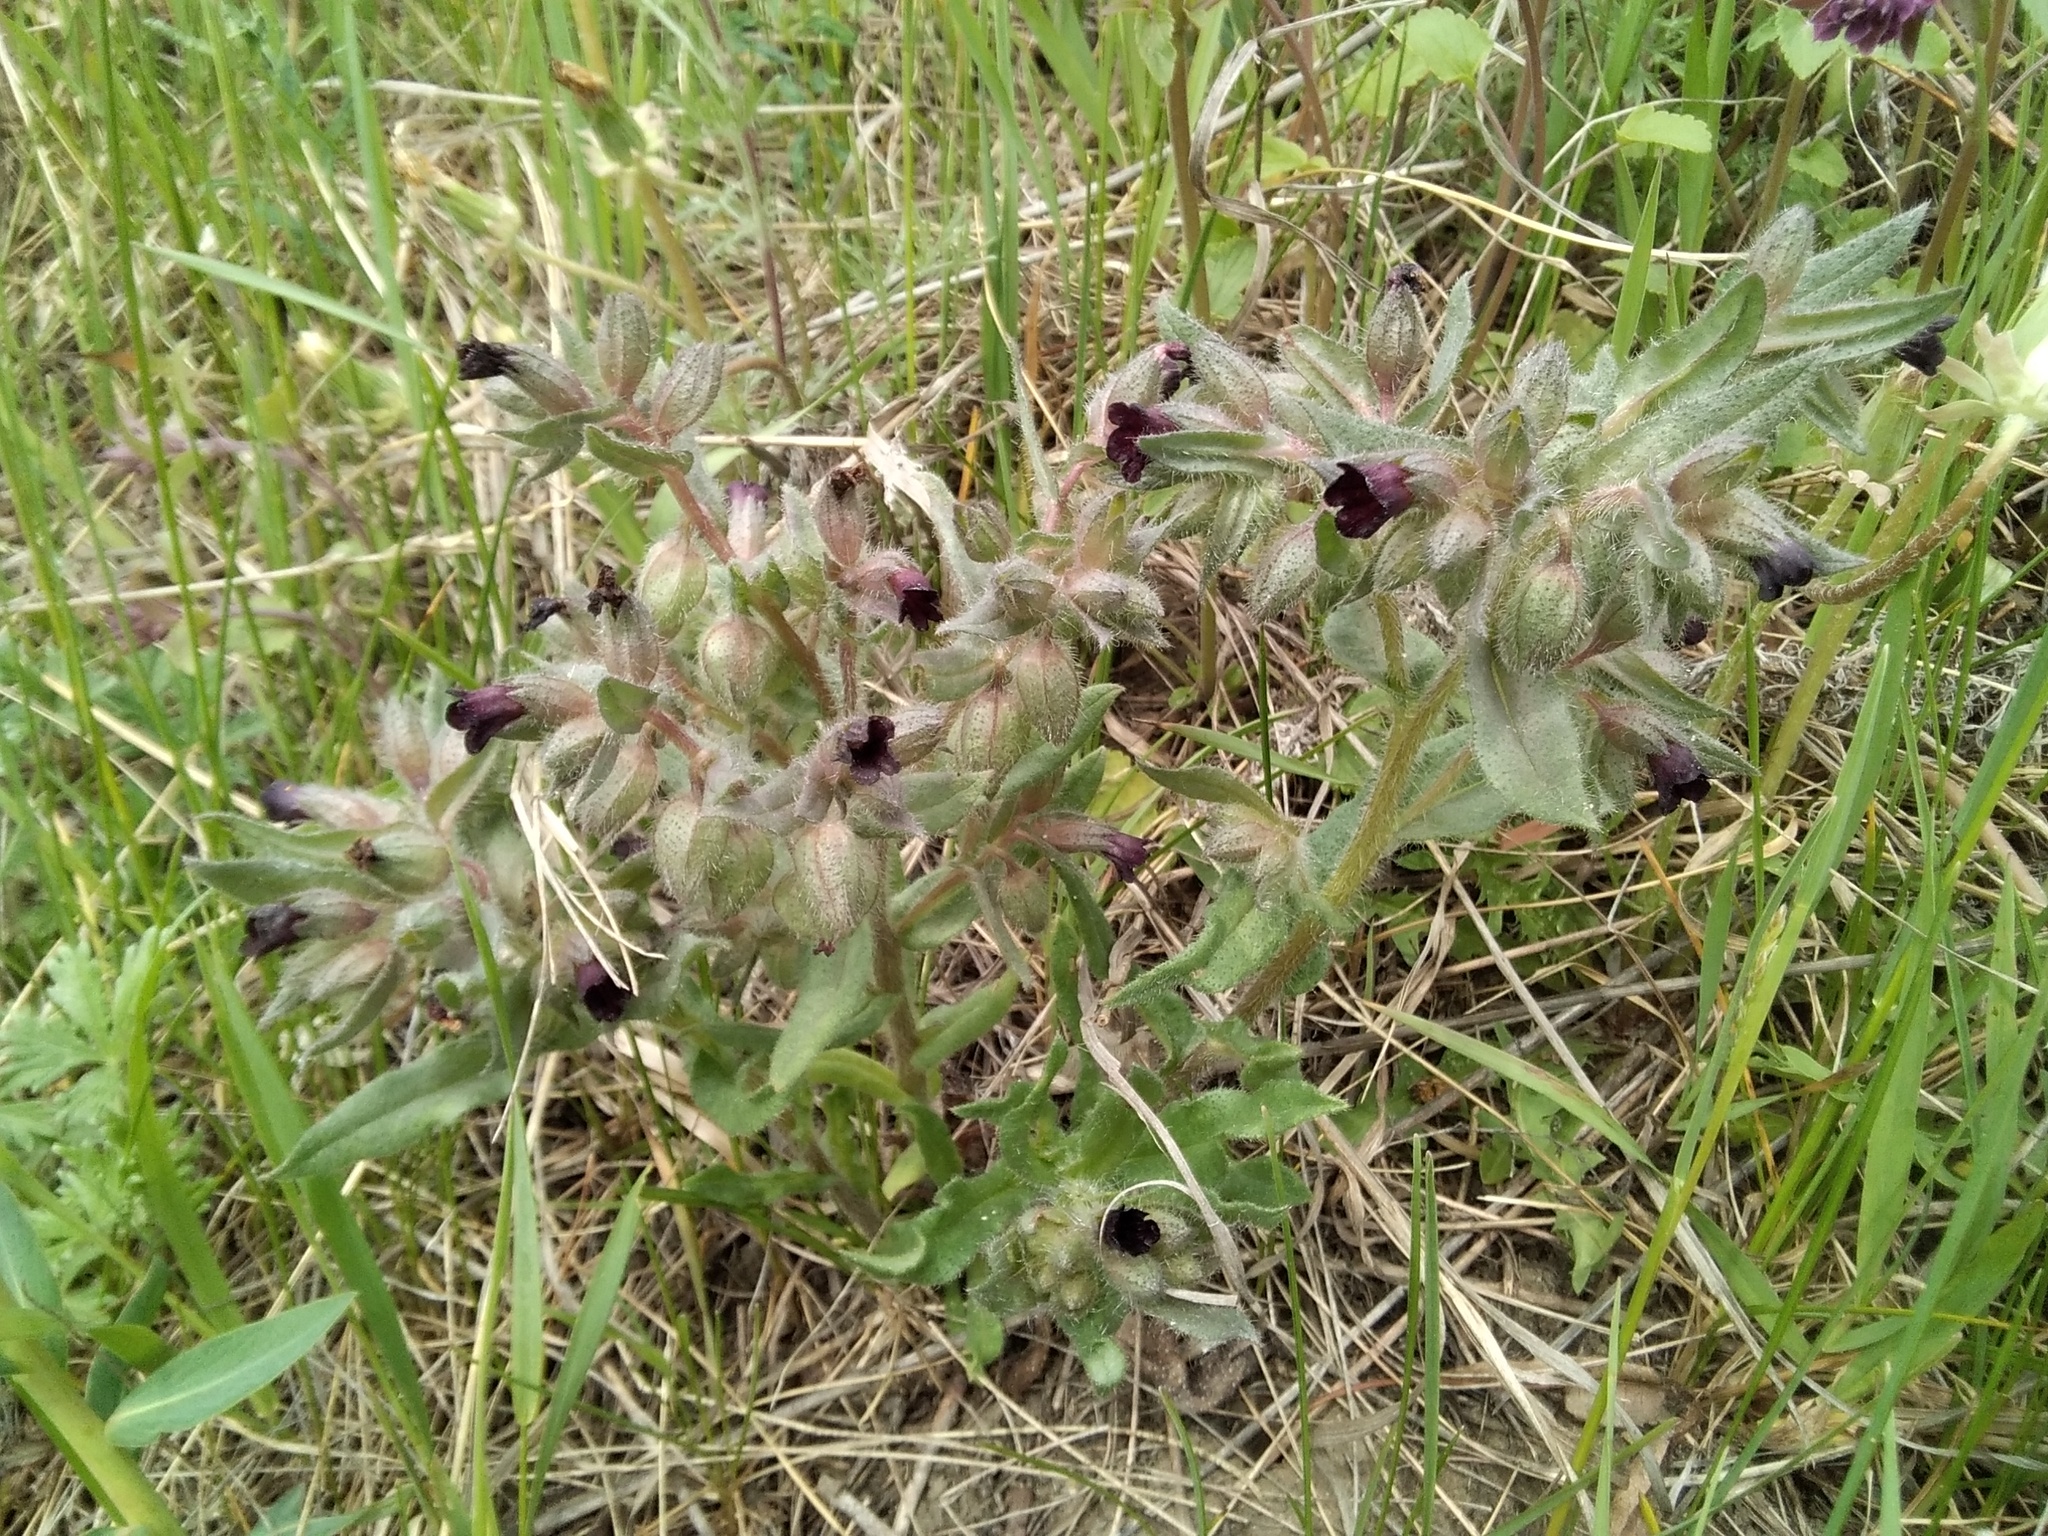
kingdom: Plantae
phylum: Tracheophyta
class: Magnoliopsida
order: Boraginales
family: Boraginaceae
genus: Nonea
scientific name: Nonea pulla
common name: Brown nonea
